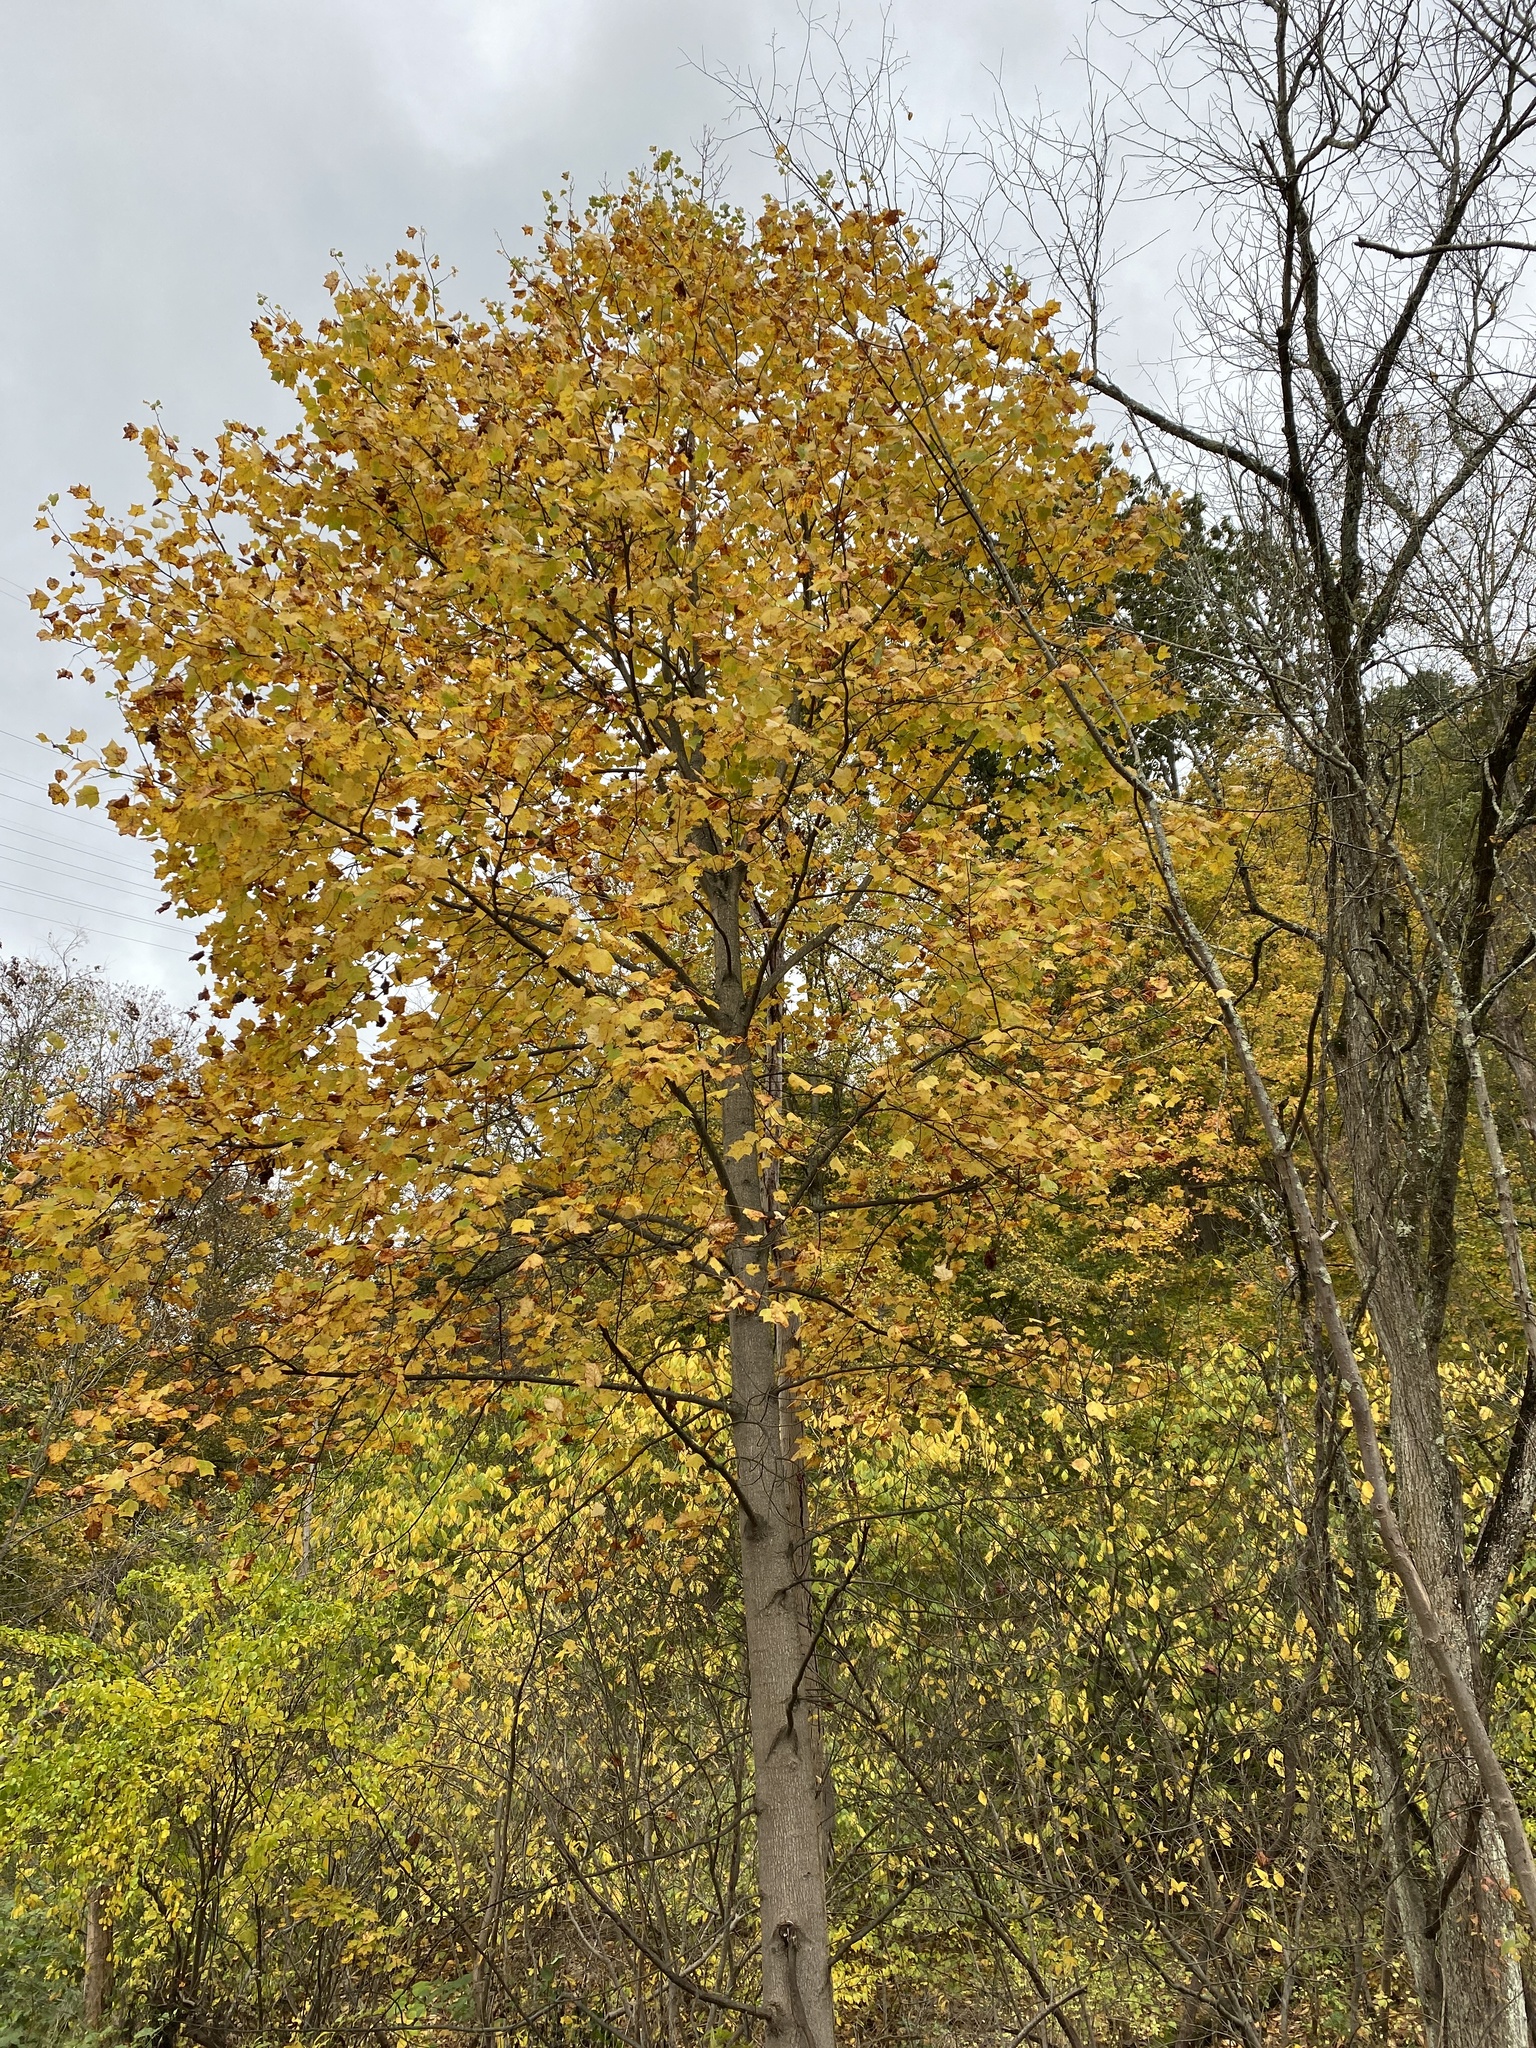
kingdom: Plantae
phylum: Tracheophyta
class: Magnoliopsida
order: Magnoliales
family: Magnoliaceae
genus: Liriodendron
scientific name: Liriodendron tulipifera
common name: Tulip tree
